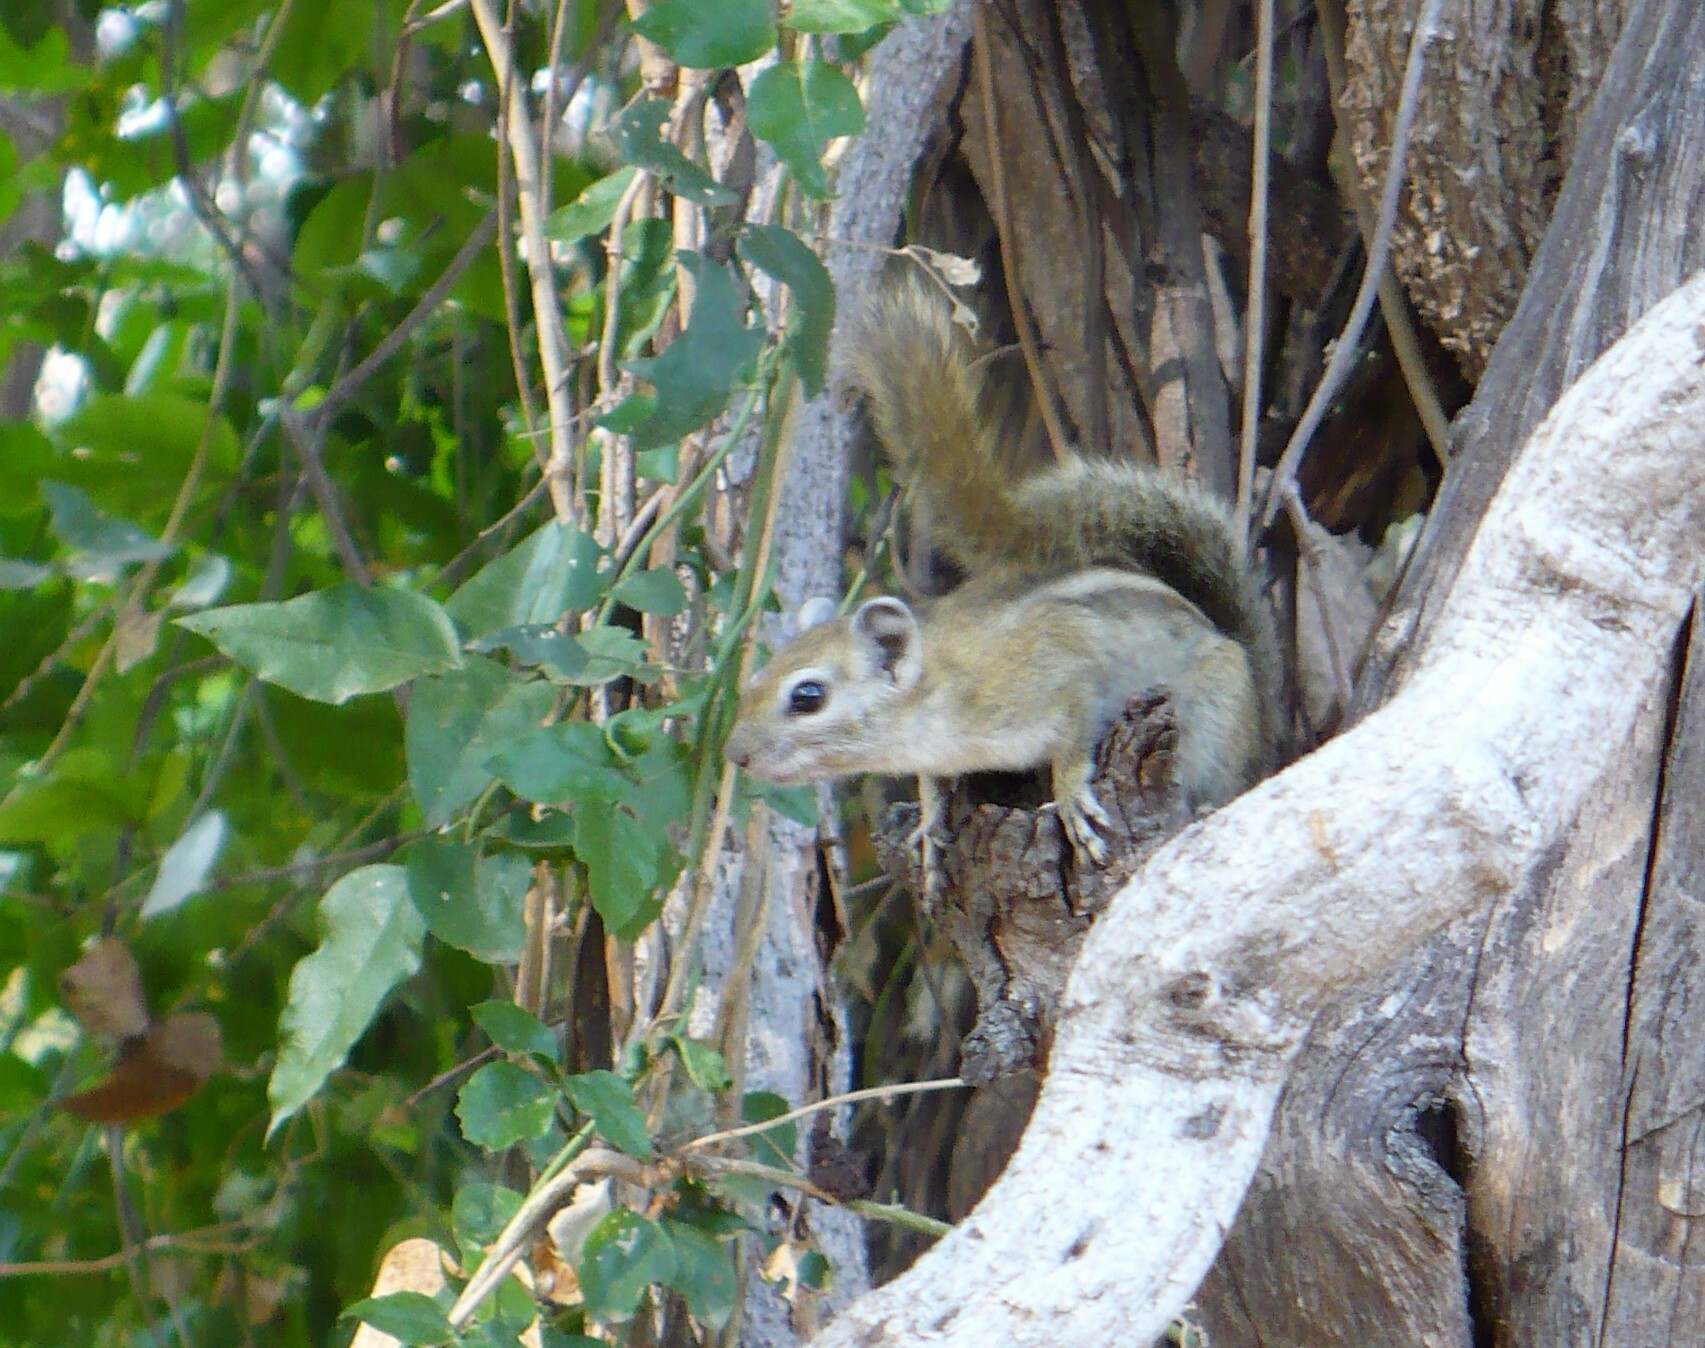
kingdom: Animalia
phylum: Chordata
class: Mammalia
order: Rodentia
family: Sciuridae
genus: Funisciurus
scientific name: Funisciurus congicus
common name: Congo rope squirrel
